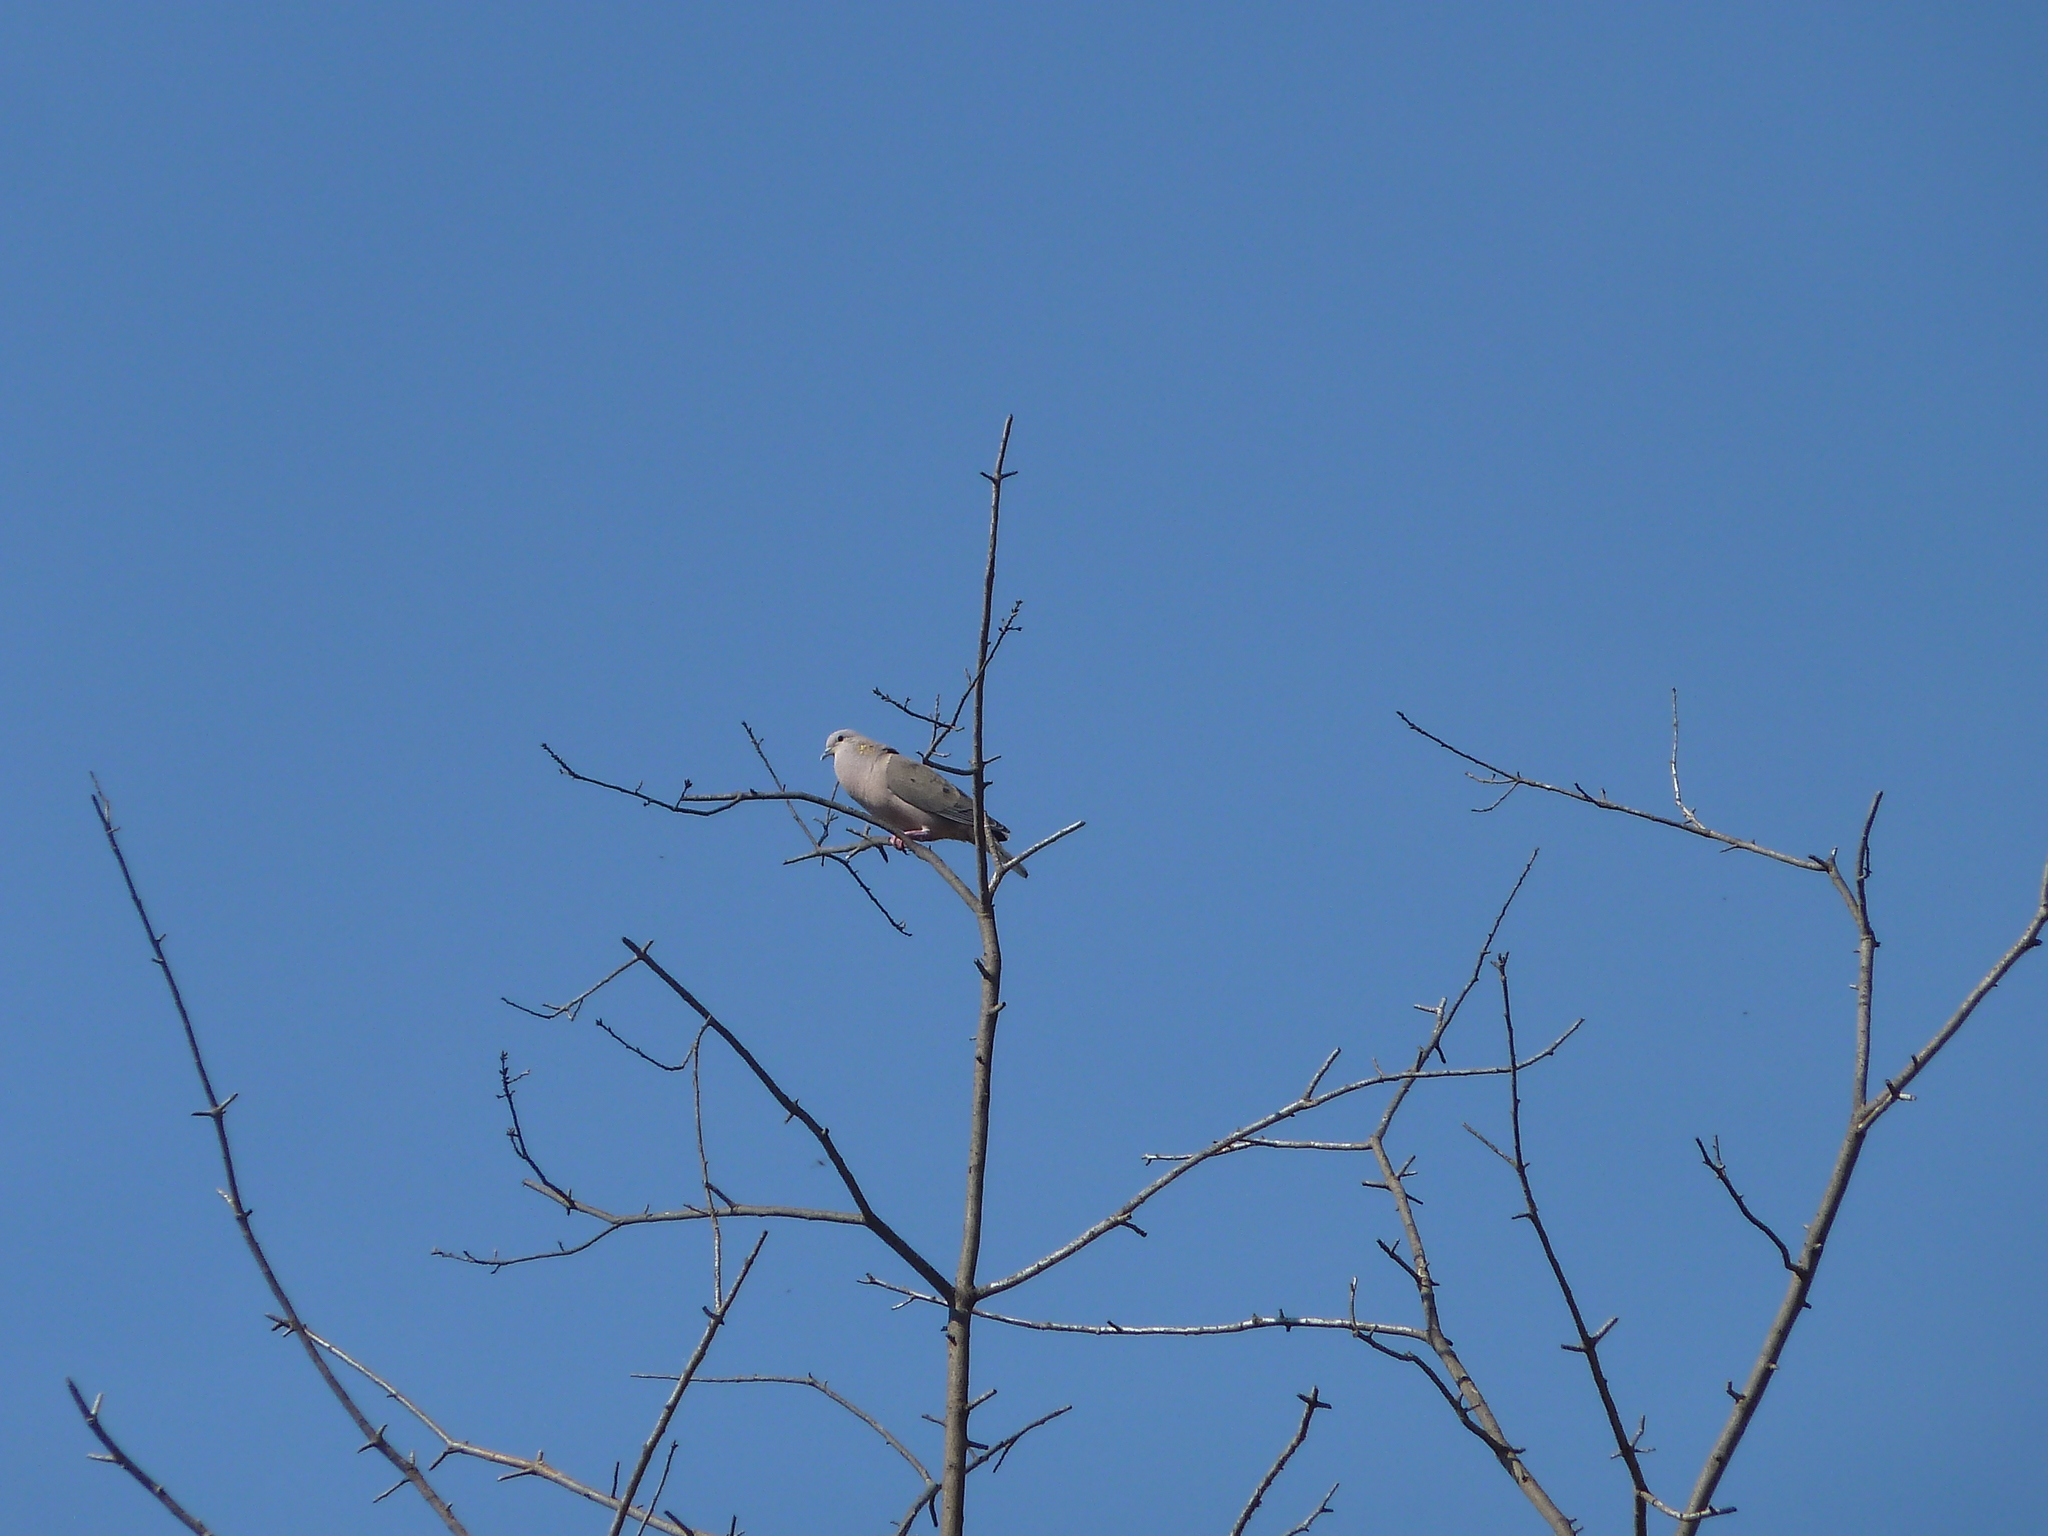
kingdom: Animalia
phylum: Chordata
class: Aves
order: Columbiformes
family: Columbidae
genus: Zenaida
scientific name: Zenaida auriculata
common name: Eared dove
